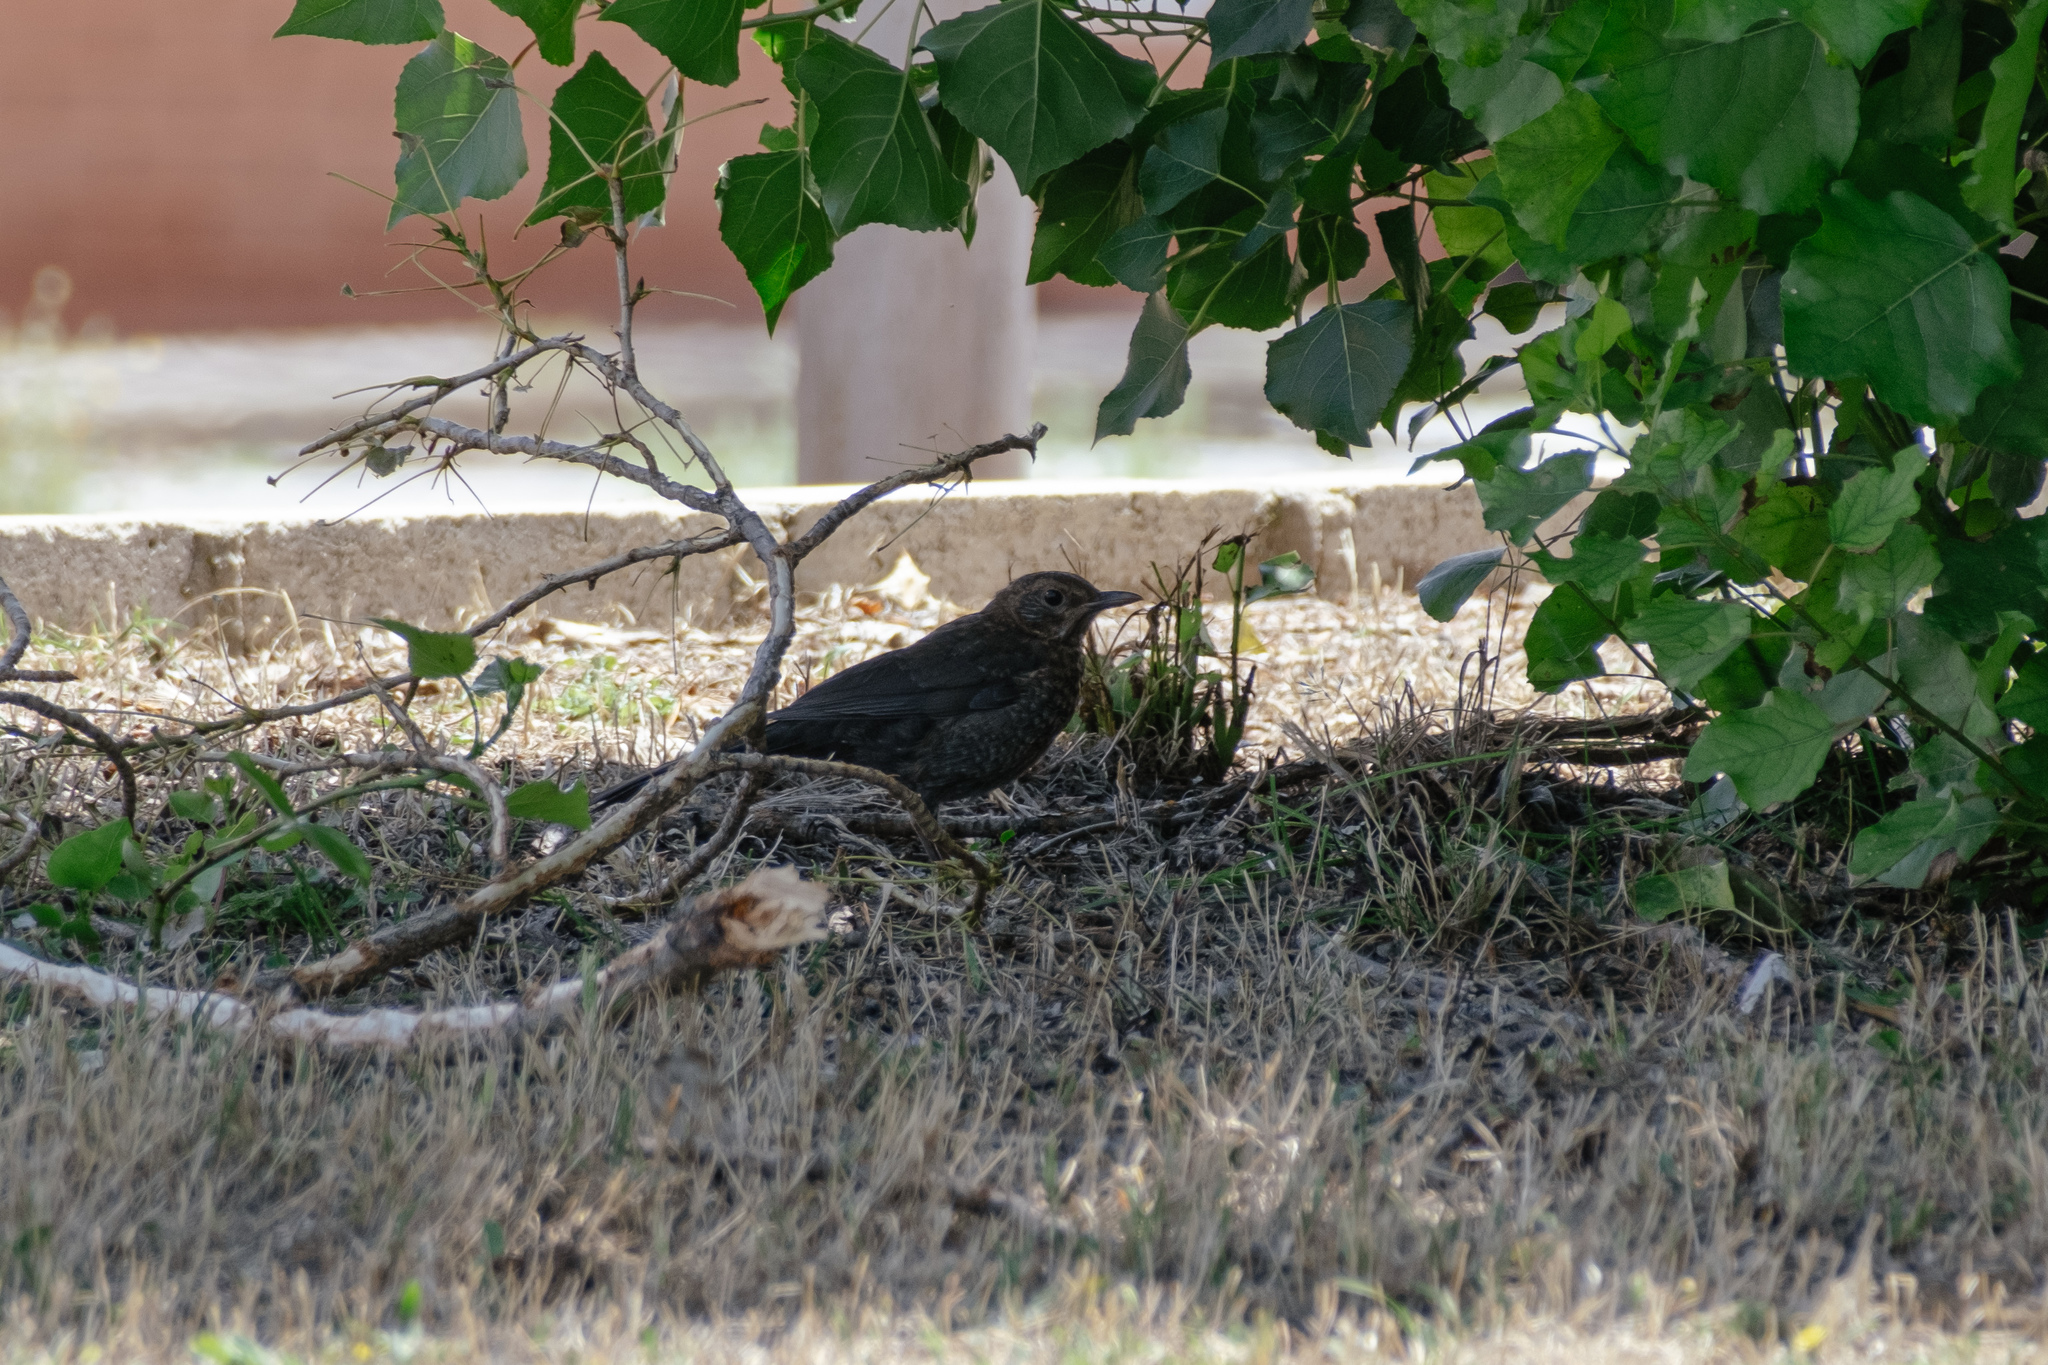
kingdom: Animalia
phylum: Chordata
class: Aves
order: Passeriformes
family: Turdidae
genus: Turdus
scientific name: Turdus merula
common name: Common blackbird
